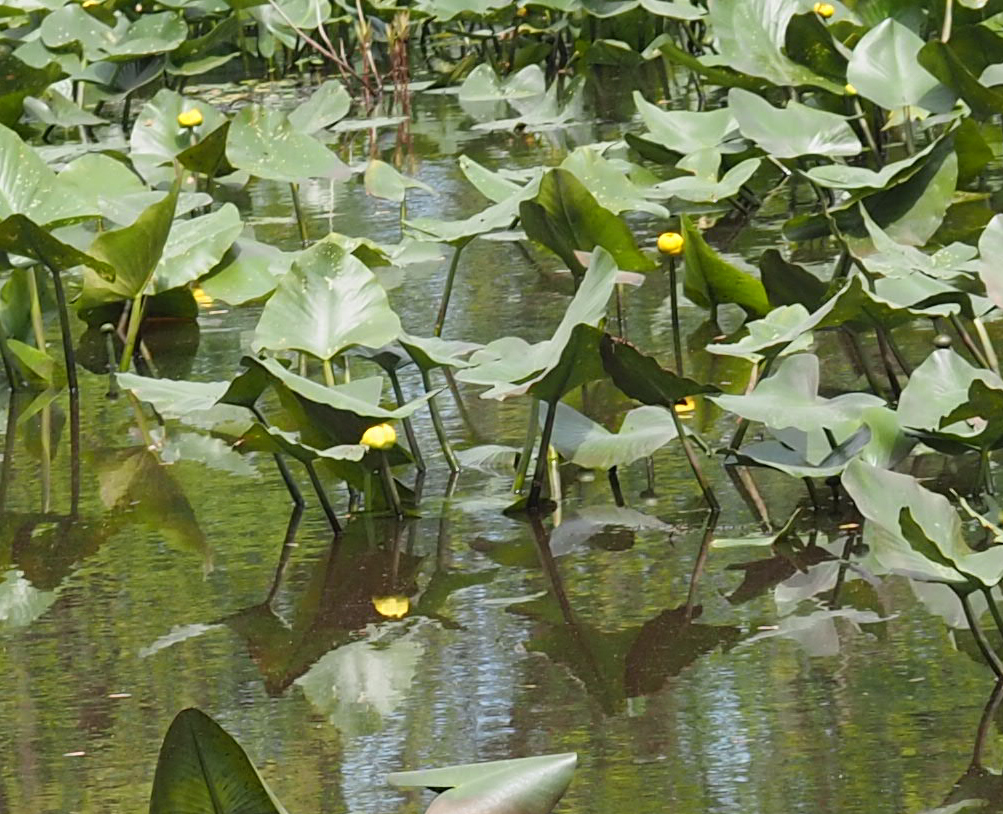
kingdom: Plantae
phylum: Tracheophyta
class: Magnoliopsida
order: Nymphaeales
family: Nymphaeaceae
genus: Nuphar
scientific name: Nuphar advena
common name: Spatter-dock
